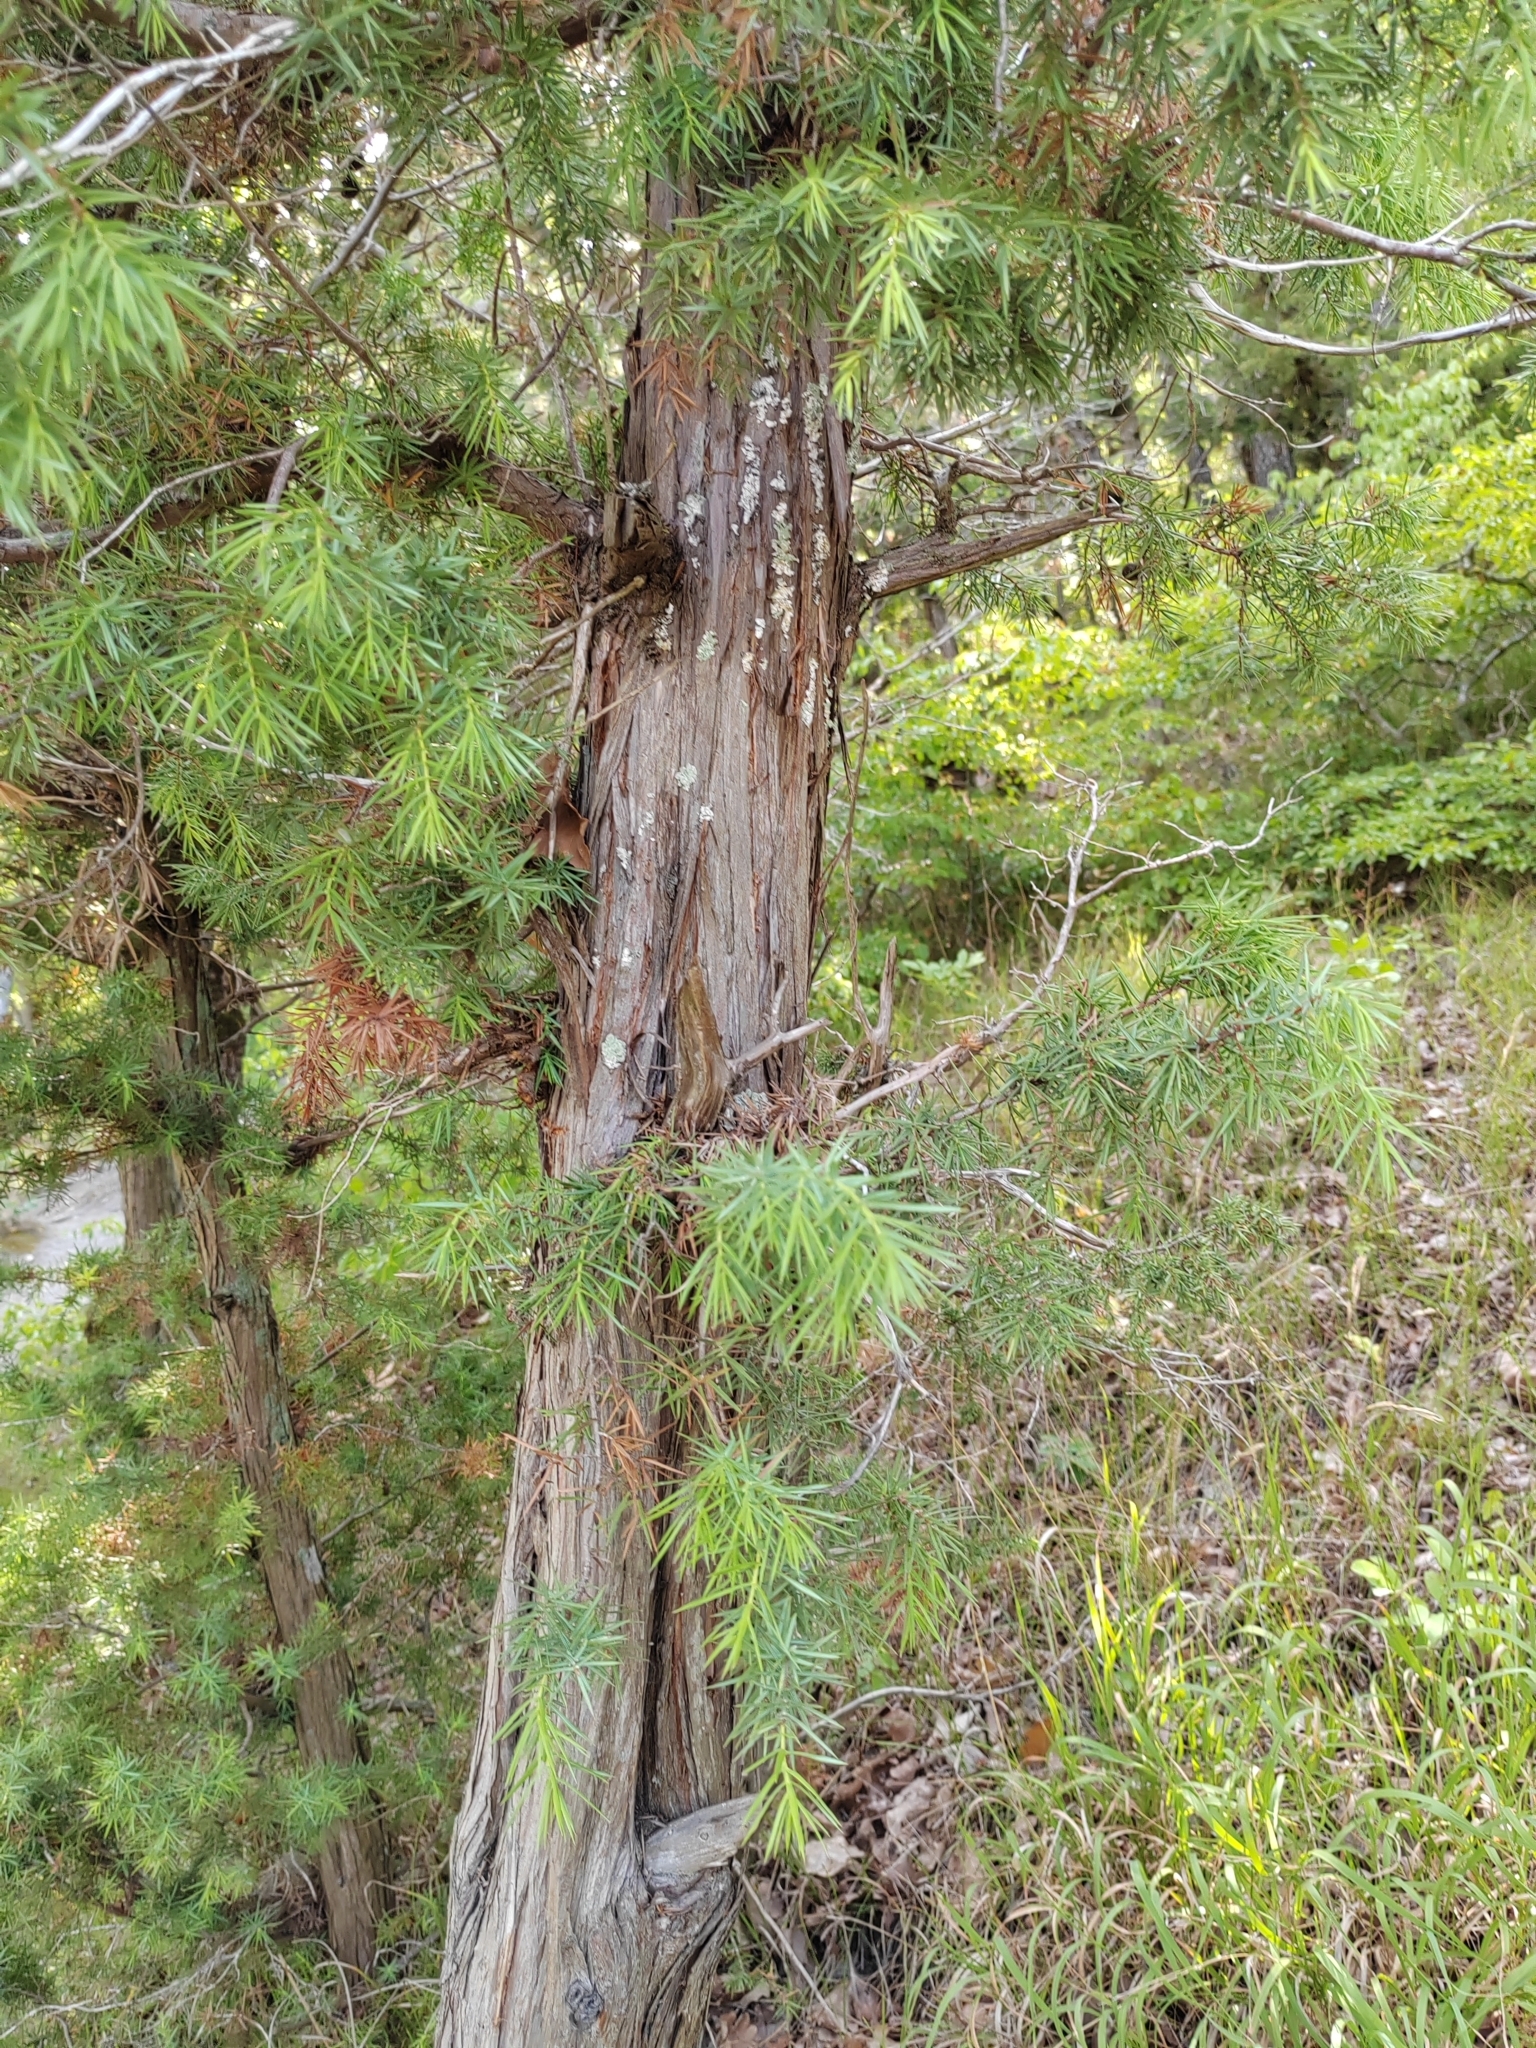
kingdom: Plantae
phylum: Tracheophyta
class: Pinopsida
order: Pinales
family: Cupressaceae
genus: Juniperus
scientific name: Juniperus oxycedrus
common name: Prickly juniper
